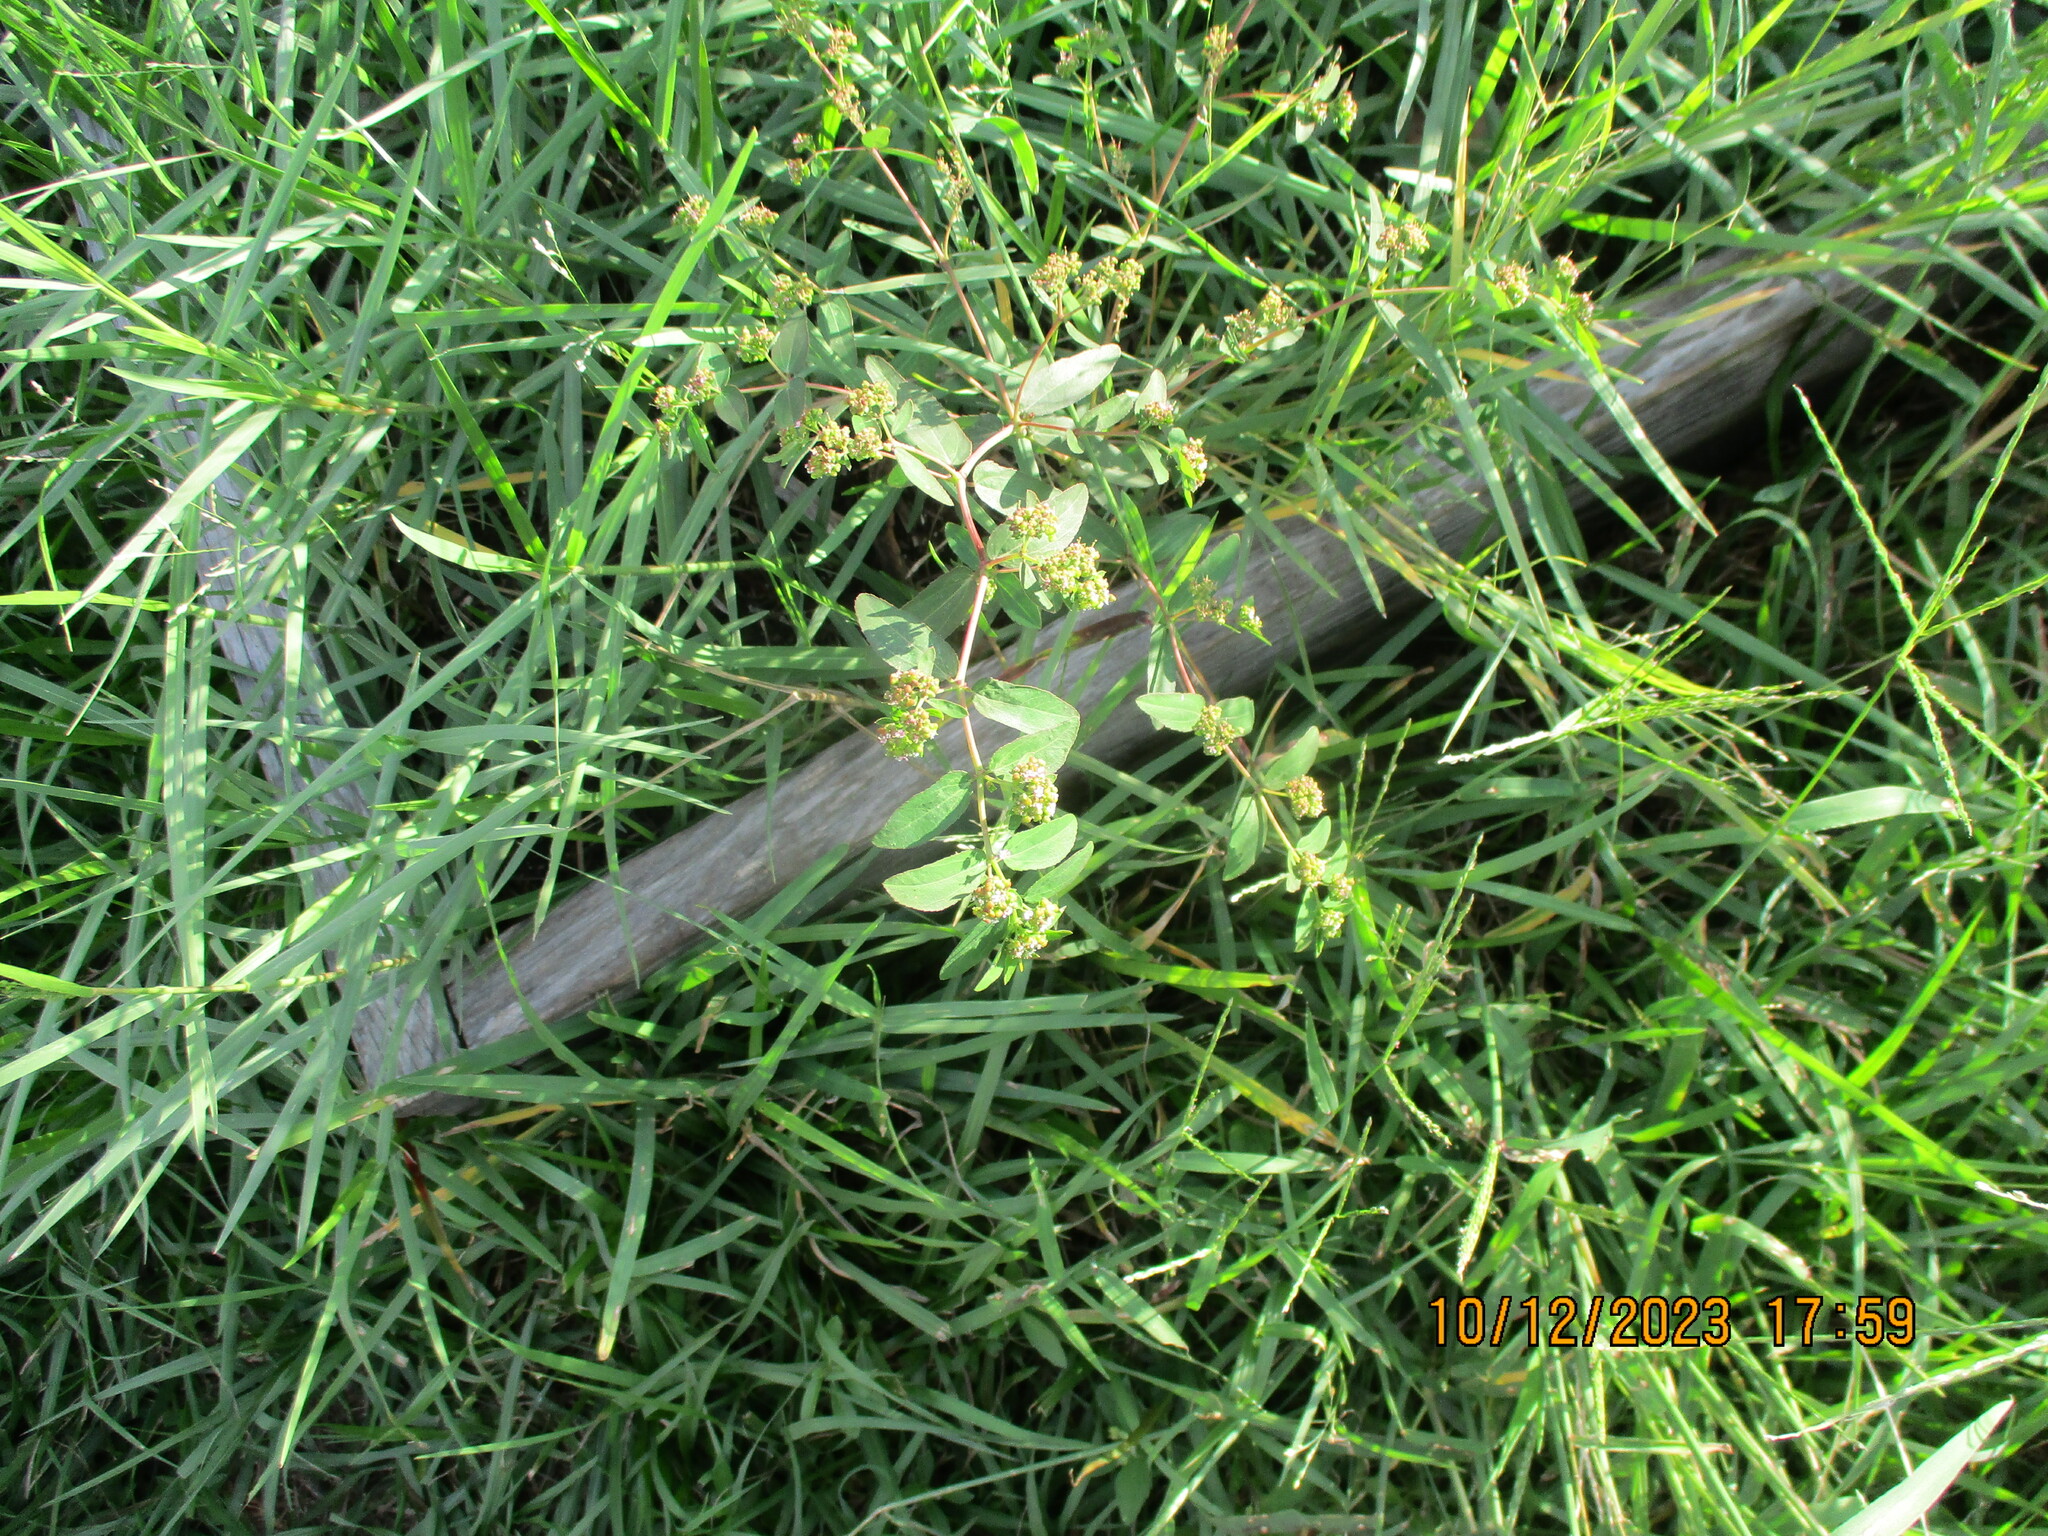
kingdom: Plantae
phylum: Tracheophyta
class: Magnoliopsida
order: Malpighiales
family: Euphorbiaceae
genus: Euphorbia
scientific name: Euphorbia hypericifolia
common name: Graceful sandmat
